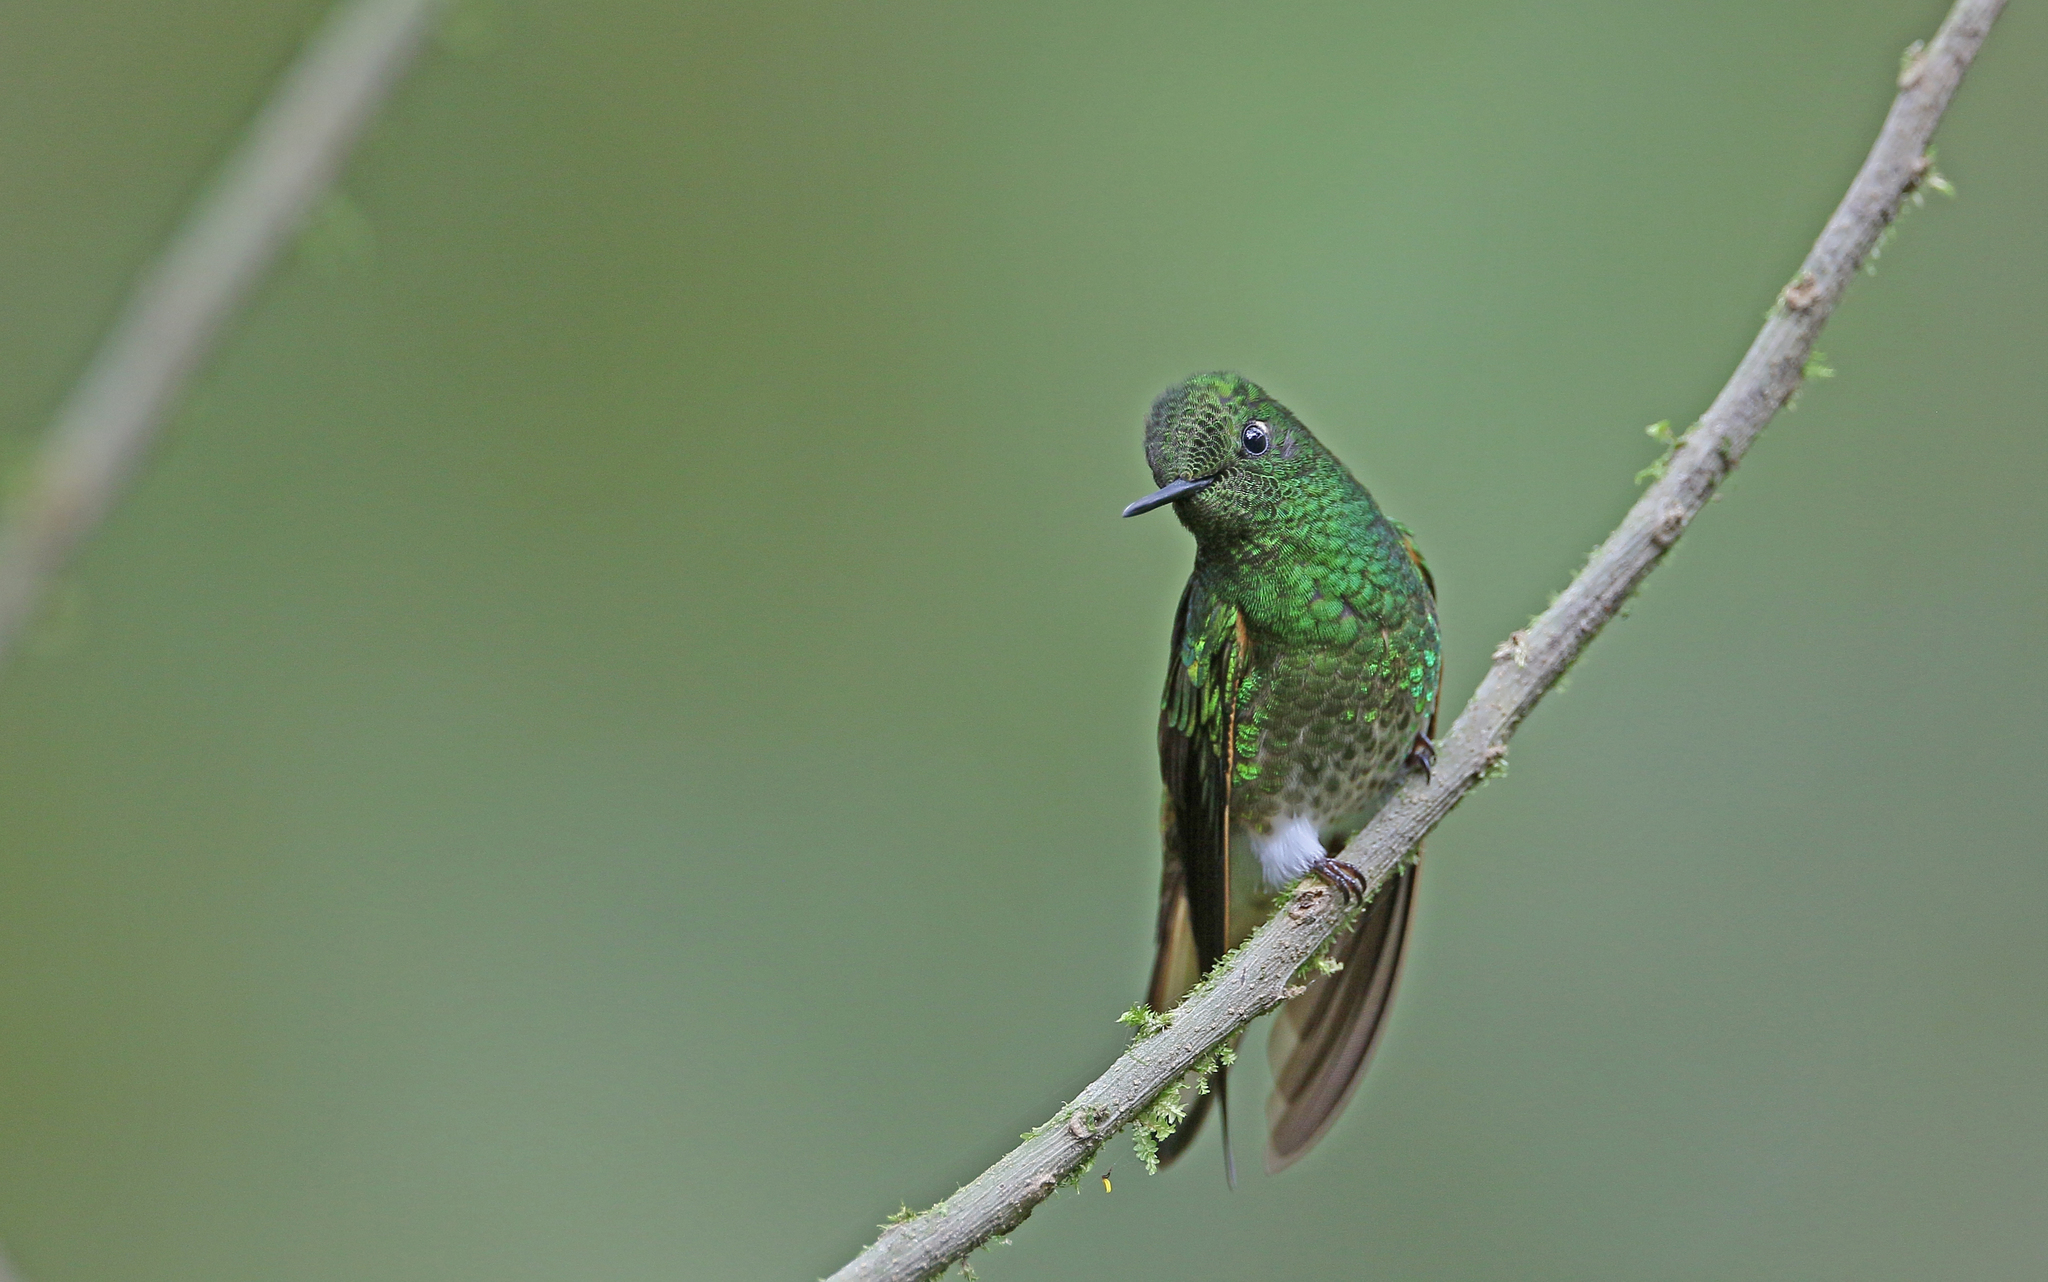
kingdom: Animalia
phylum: Chordata
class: Aves
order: Apodiformes
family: Trochilidae
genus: Boissonneaua
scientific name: Boissonneaua flavescens
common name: Buff-tailed coronet
